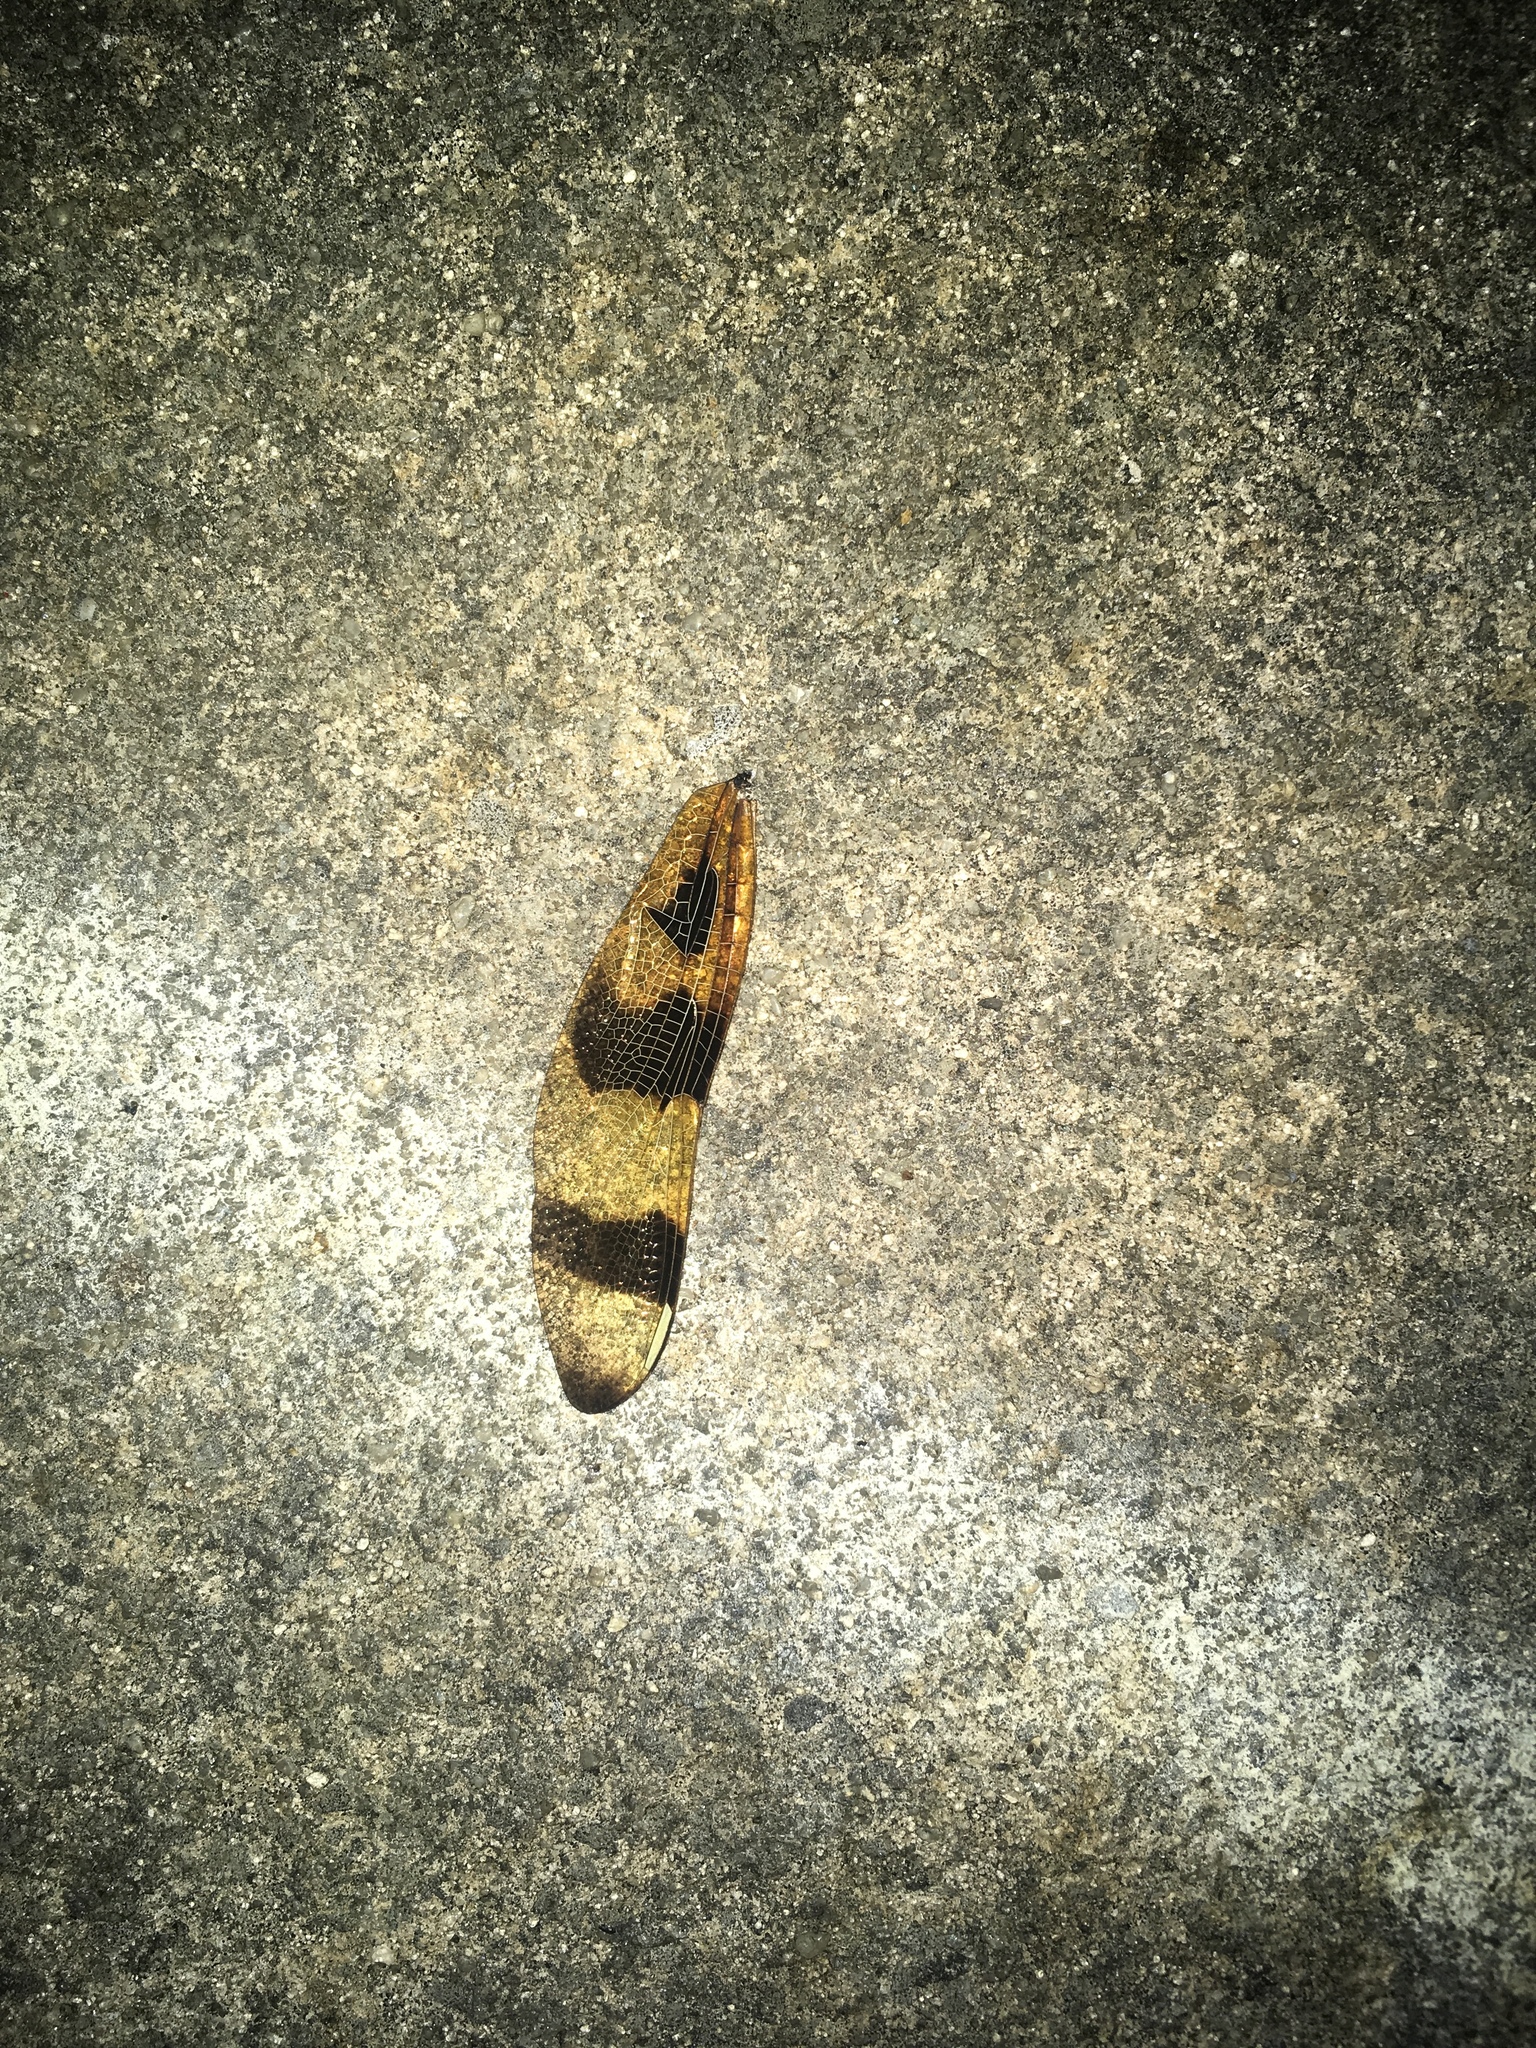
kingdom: Animalia
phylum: Arthropoda
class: Insecta
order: Odonata
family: Libellulidae
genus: Celithemis
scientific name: Celithemis eponina
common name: Halloween pennant
